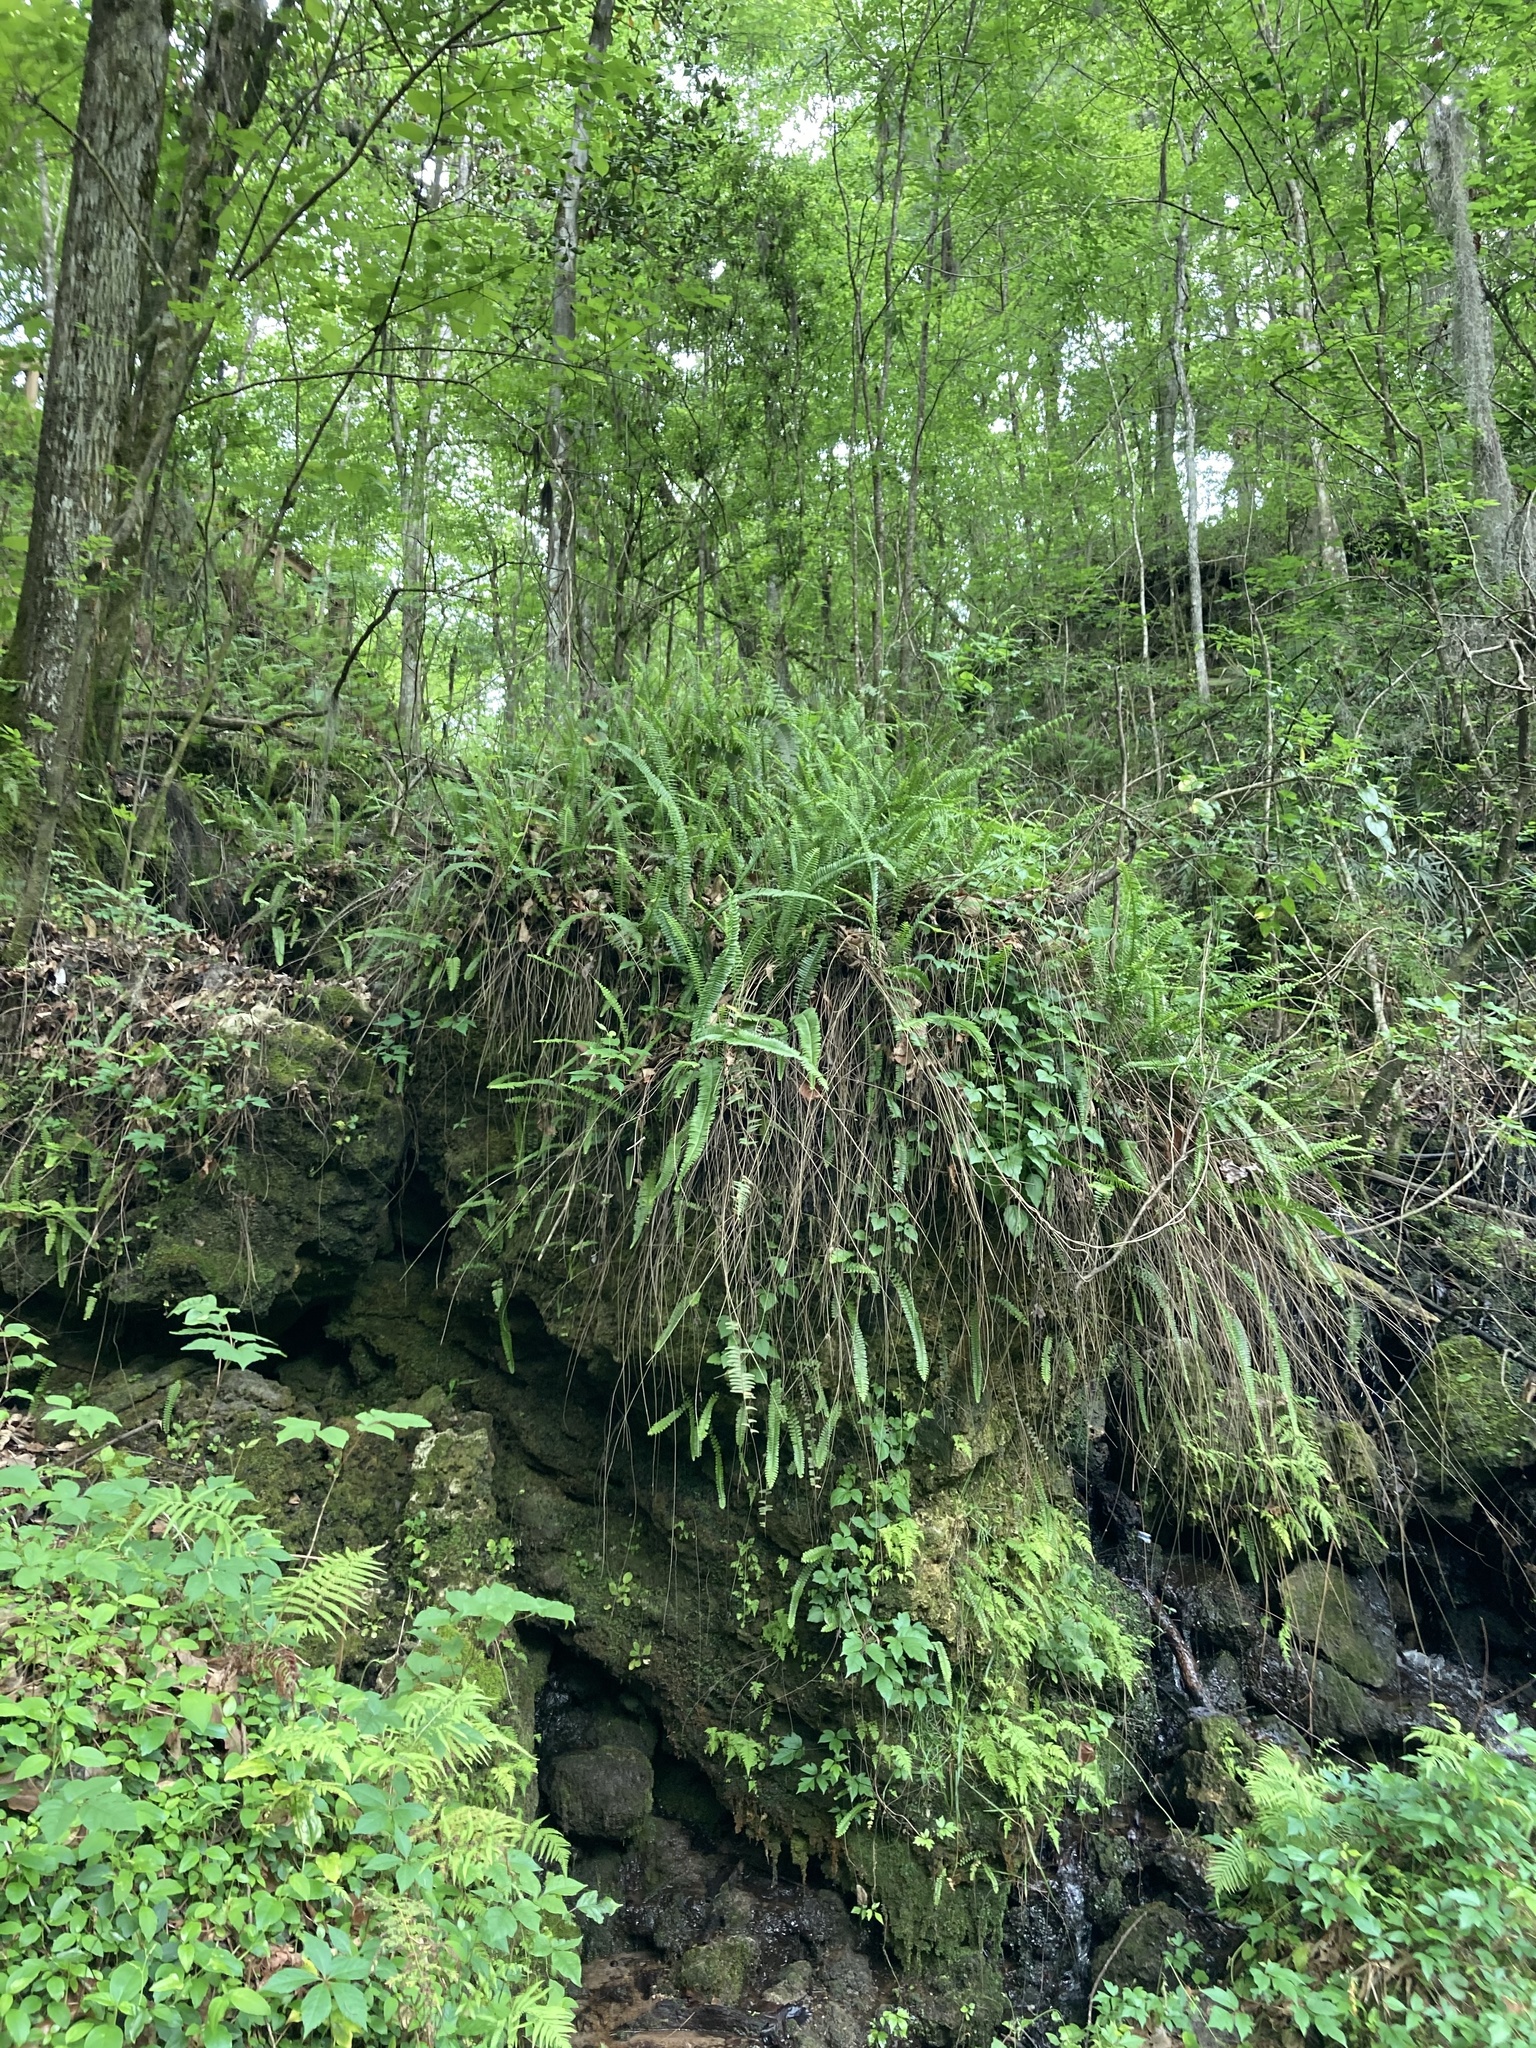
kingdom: Plantae
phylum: Tracheophyta
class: Polypodiopsida
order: Polypodiales
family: Nephrolepidaceae
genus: Nephrolepis
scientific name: Nephrolepis cordifolia
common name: Narrow swordfern
